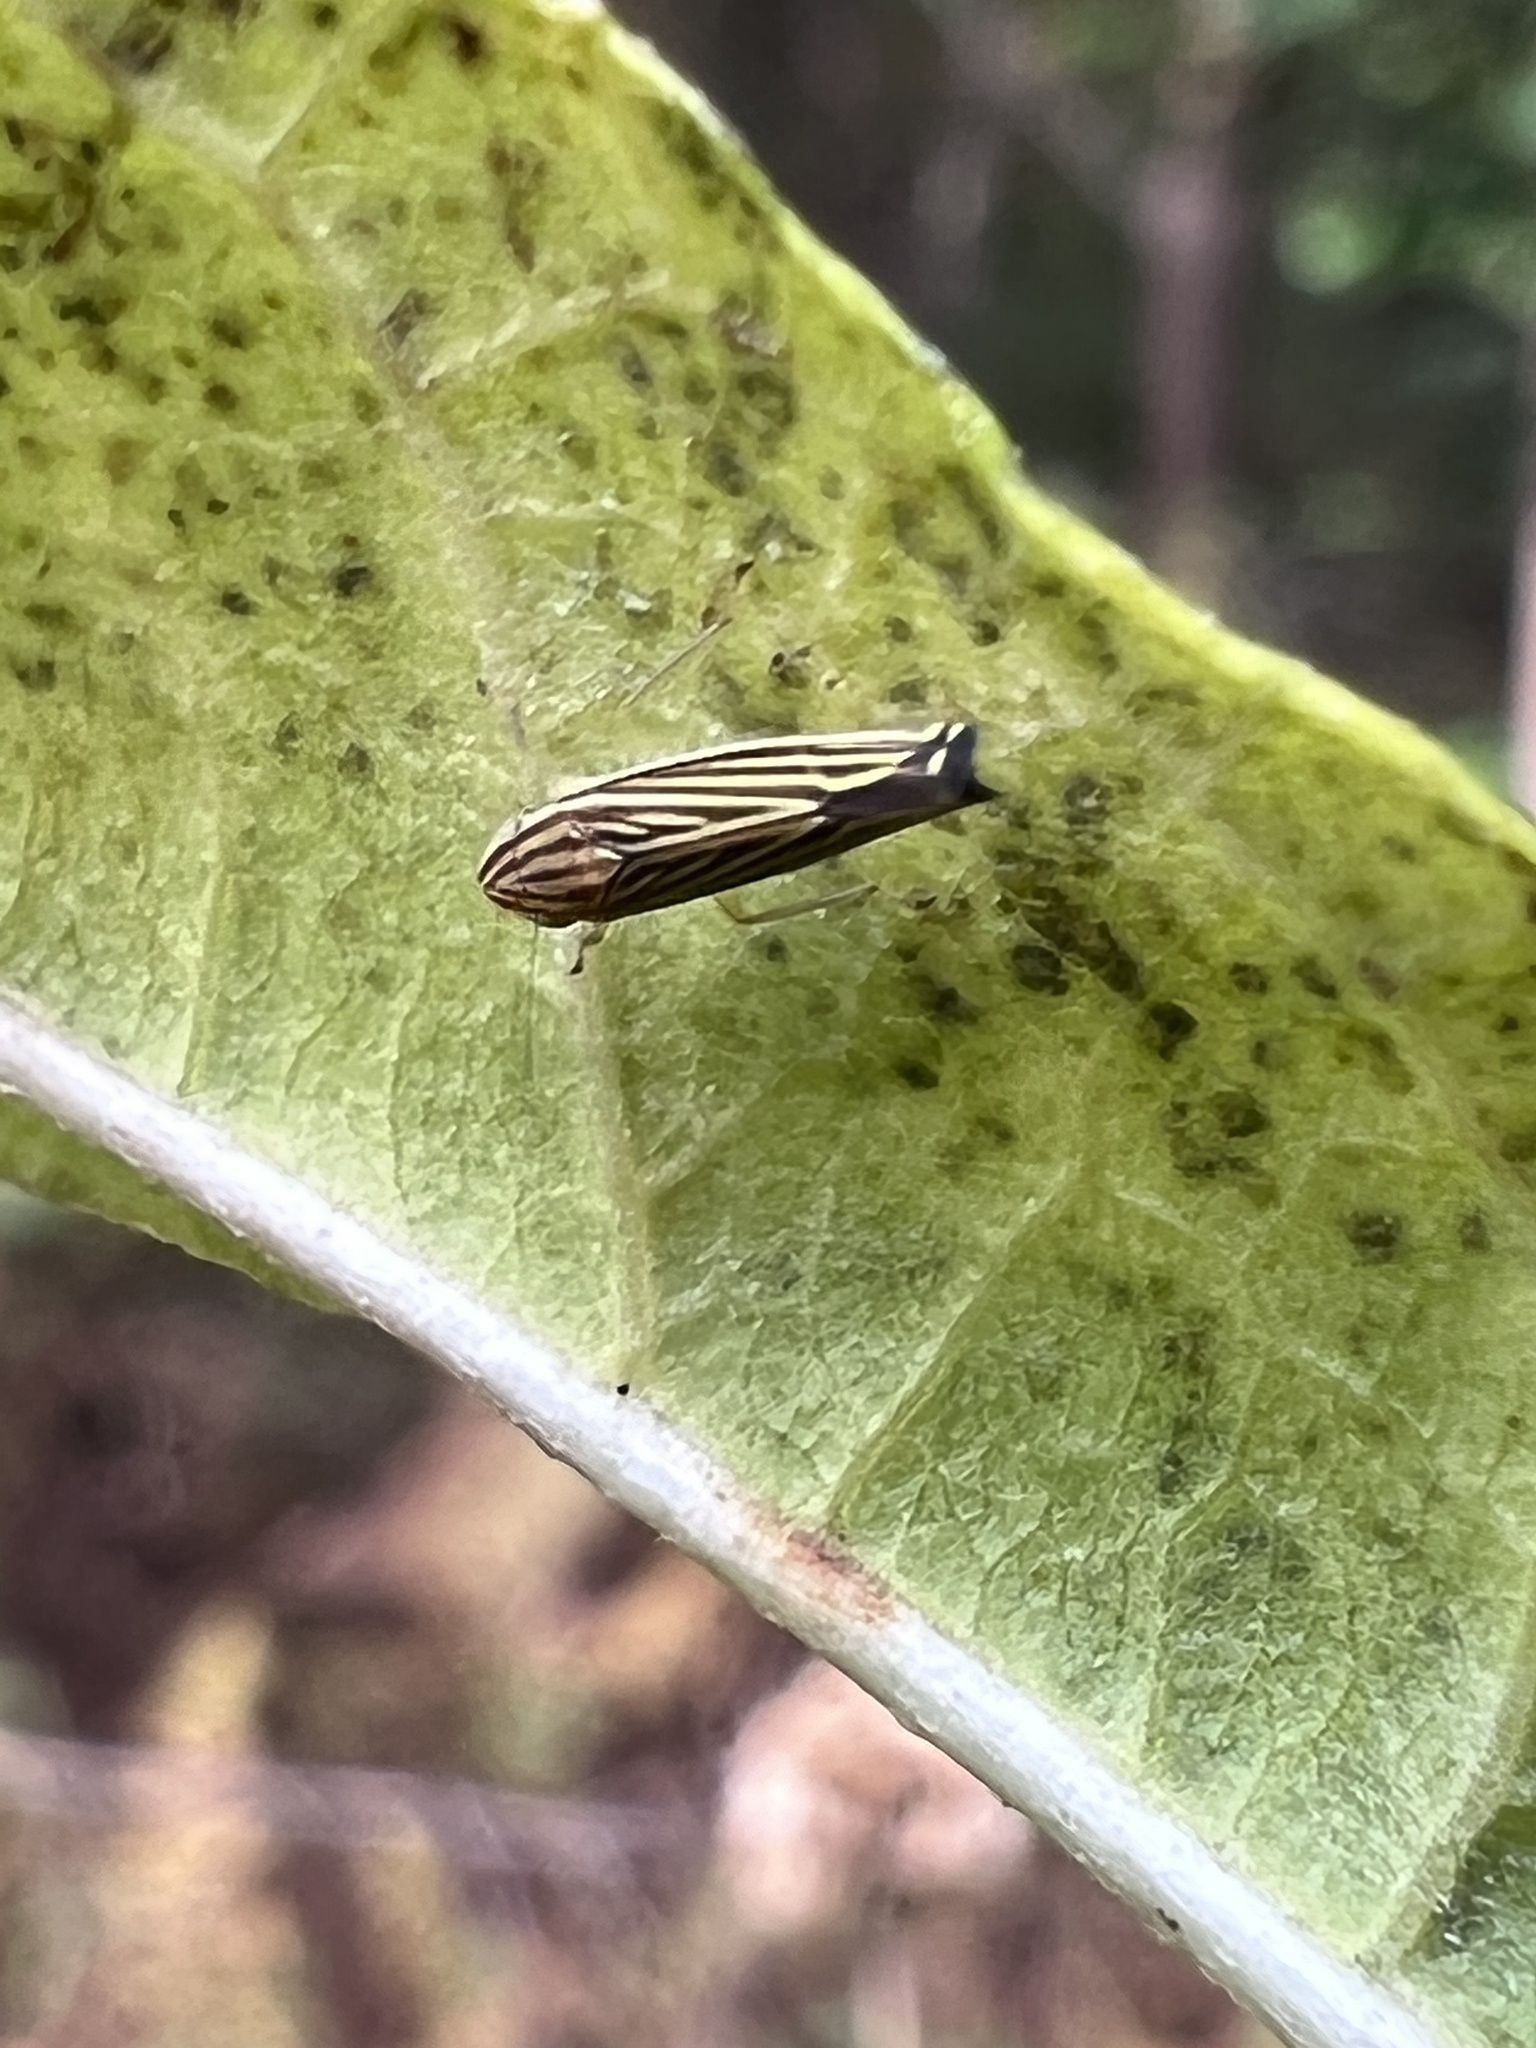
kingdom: Animalia
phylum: Arthropoda
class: Insecta
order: Hemiptera
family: Cicadellidae
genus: Sibovia
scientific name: Sibovia occatoria
